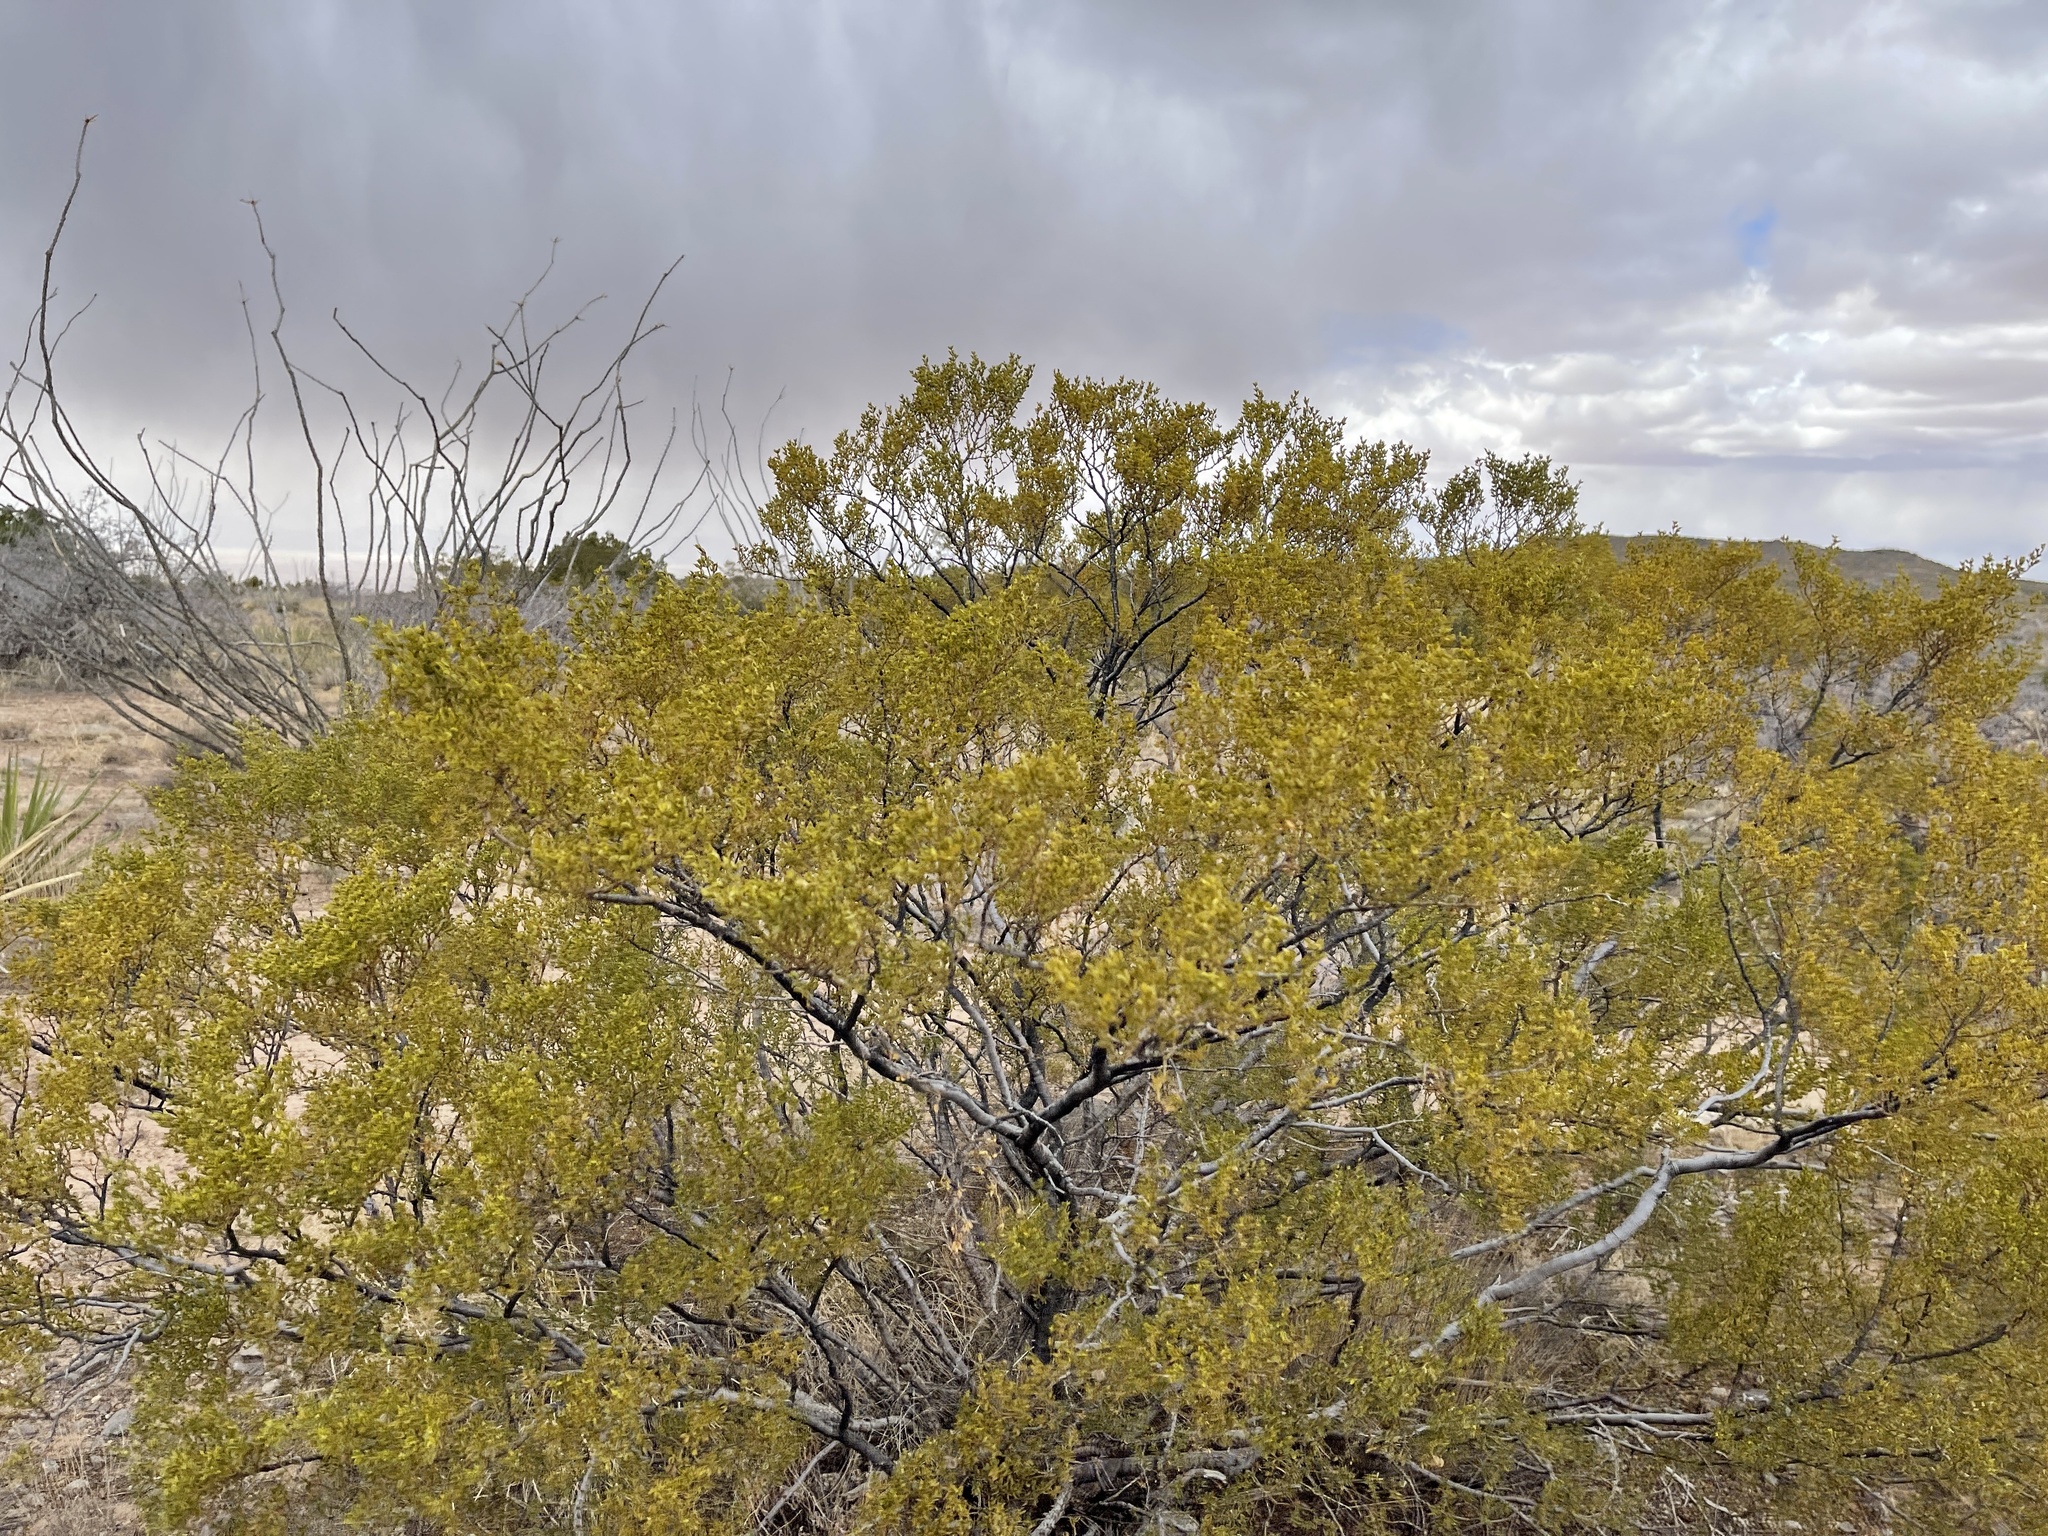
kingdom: Plantae
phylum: Tracheophyta
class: Magnoliopsida
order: Zygophyllales
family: Zygophyllaceae
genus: Larrea
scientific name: Larrea tridentata
